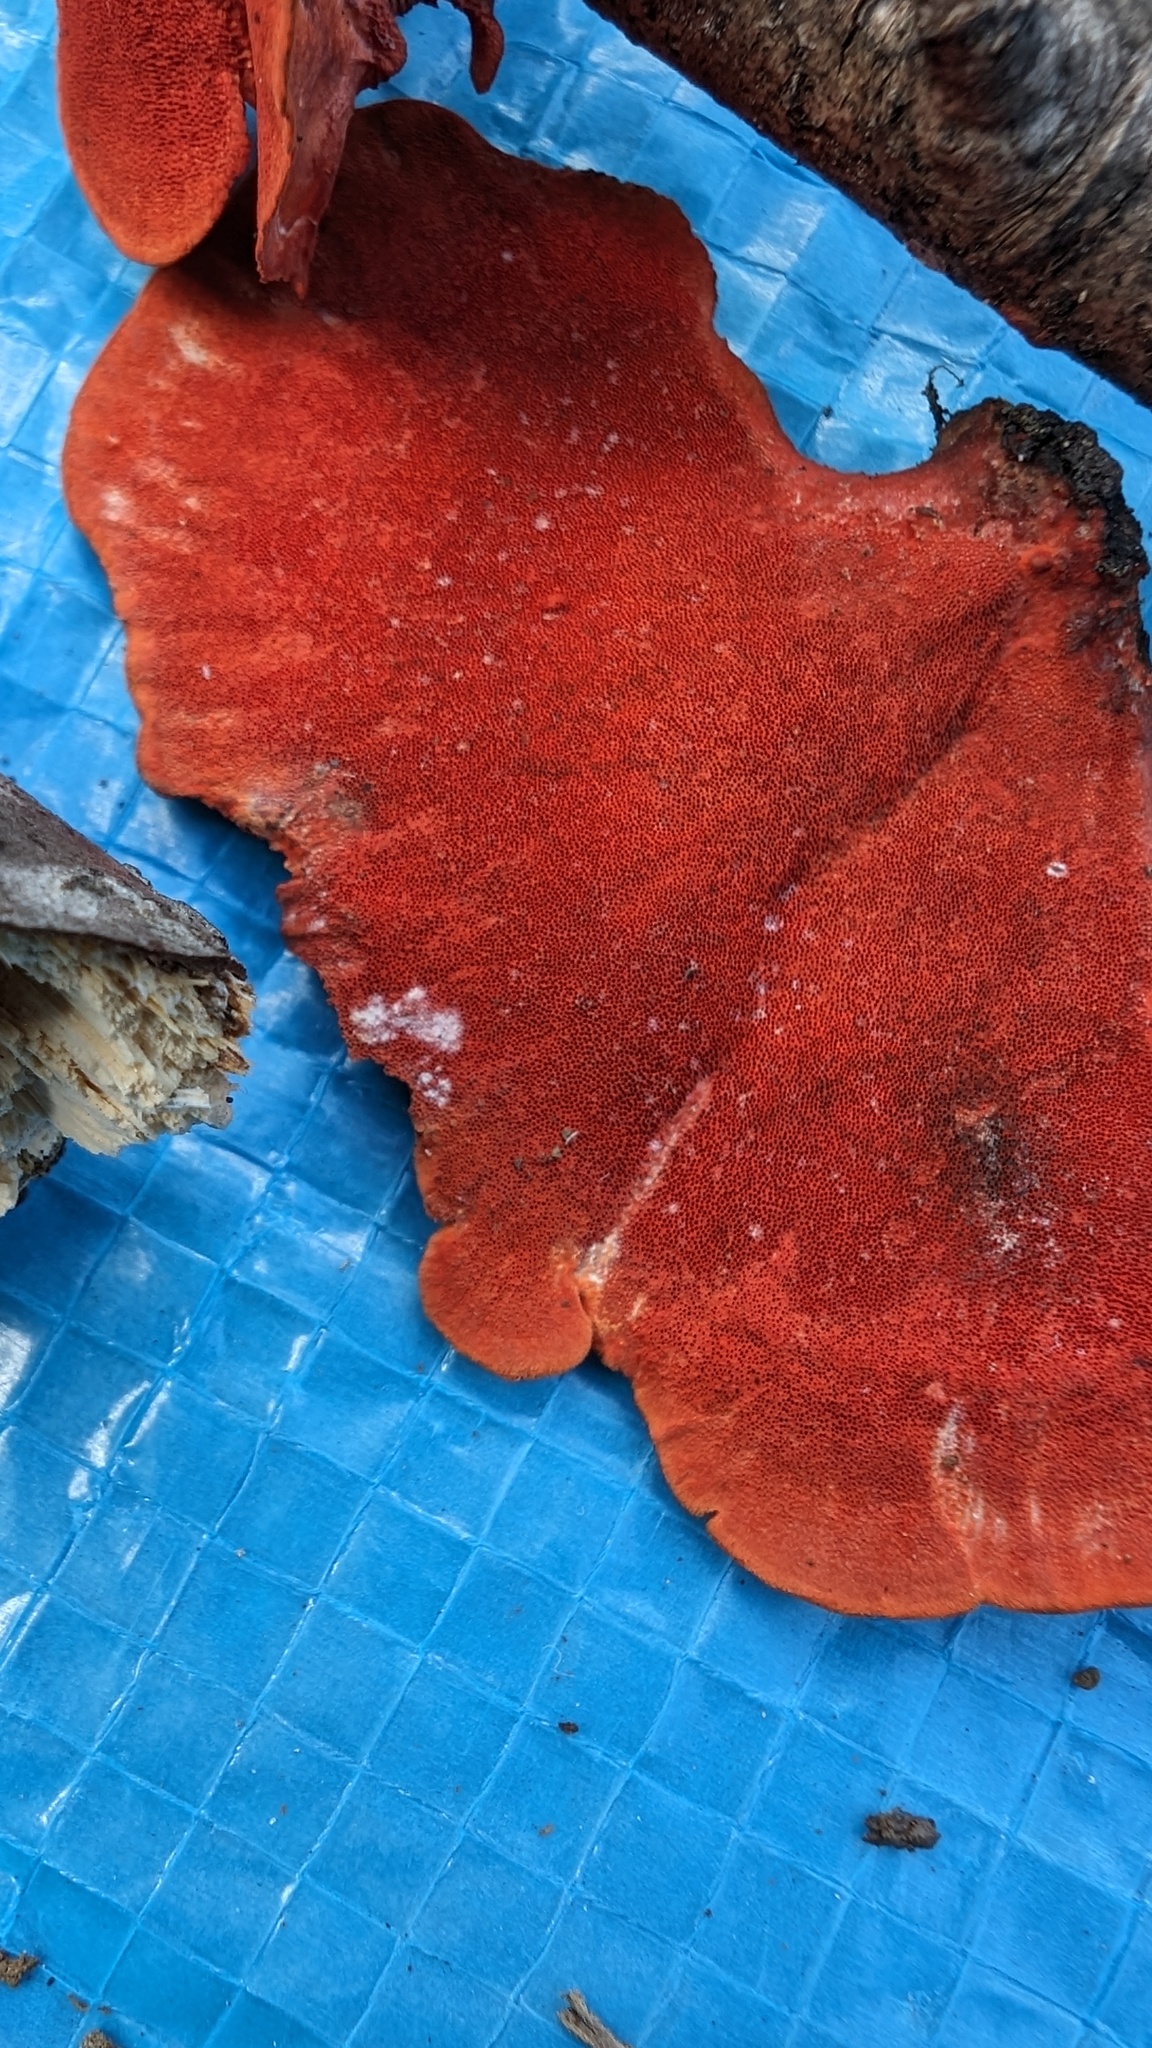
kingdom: Fungi
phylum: Basidiomycota
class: Agaricomycetes
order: Polyporales
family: Polyporaceae
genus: Trametes
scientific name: Trametes coccinea
